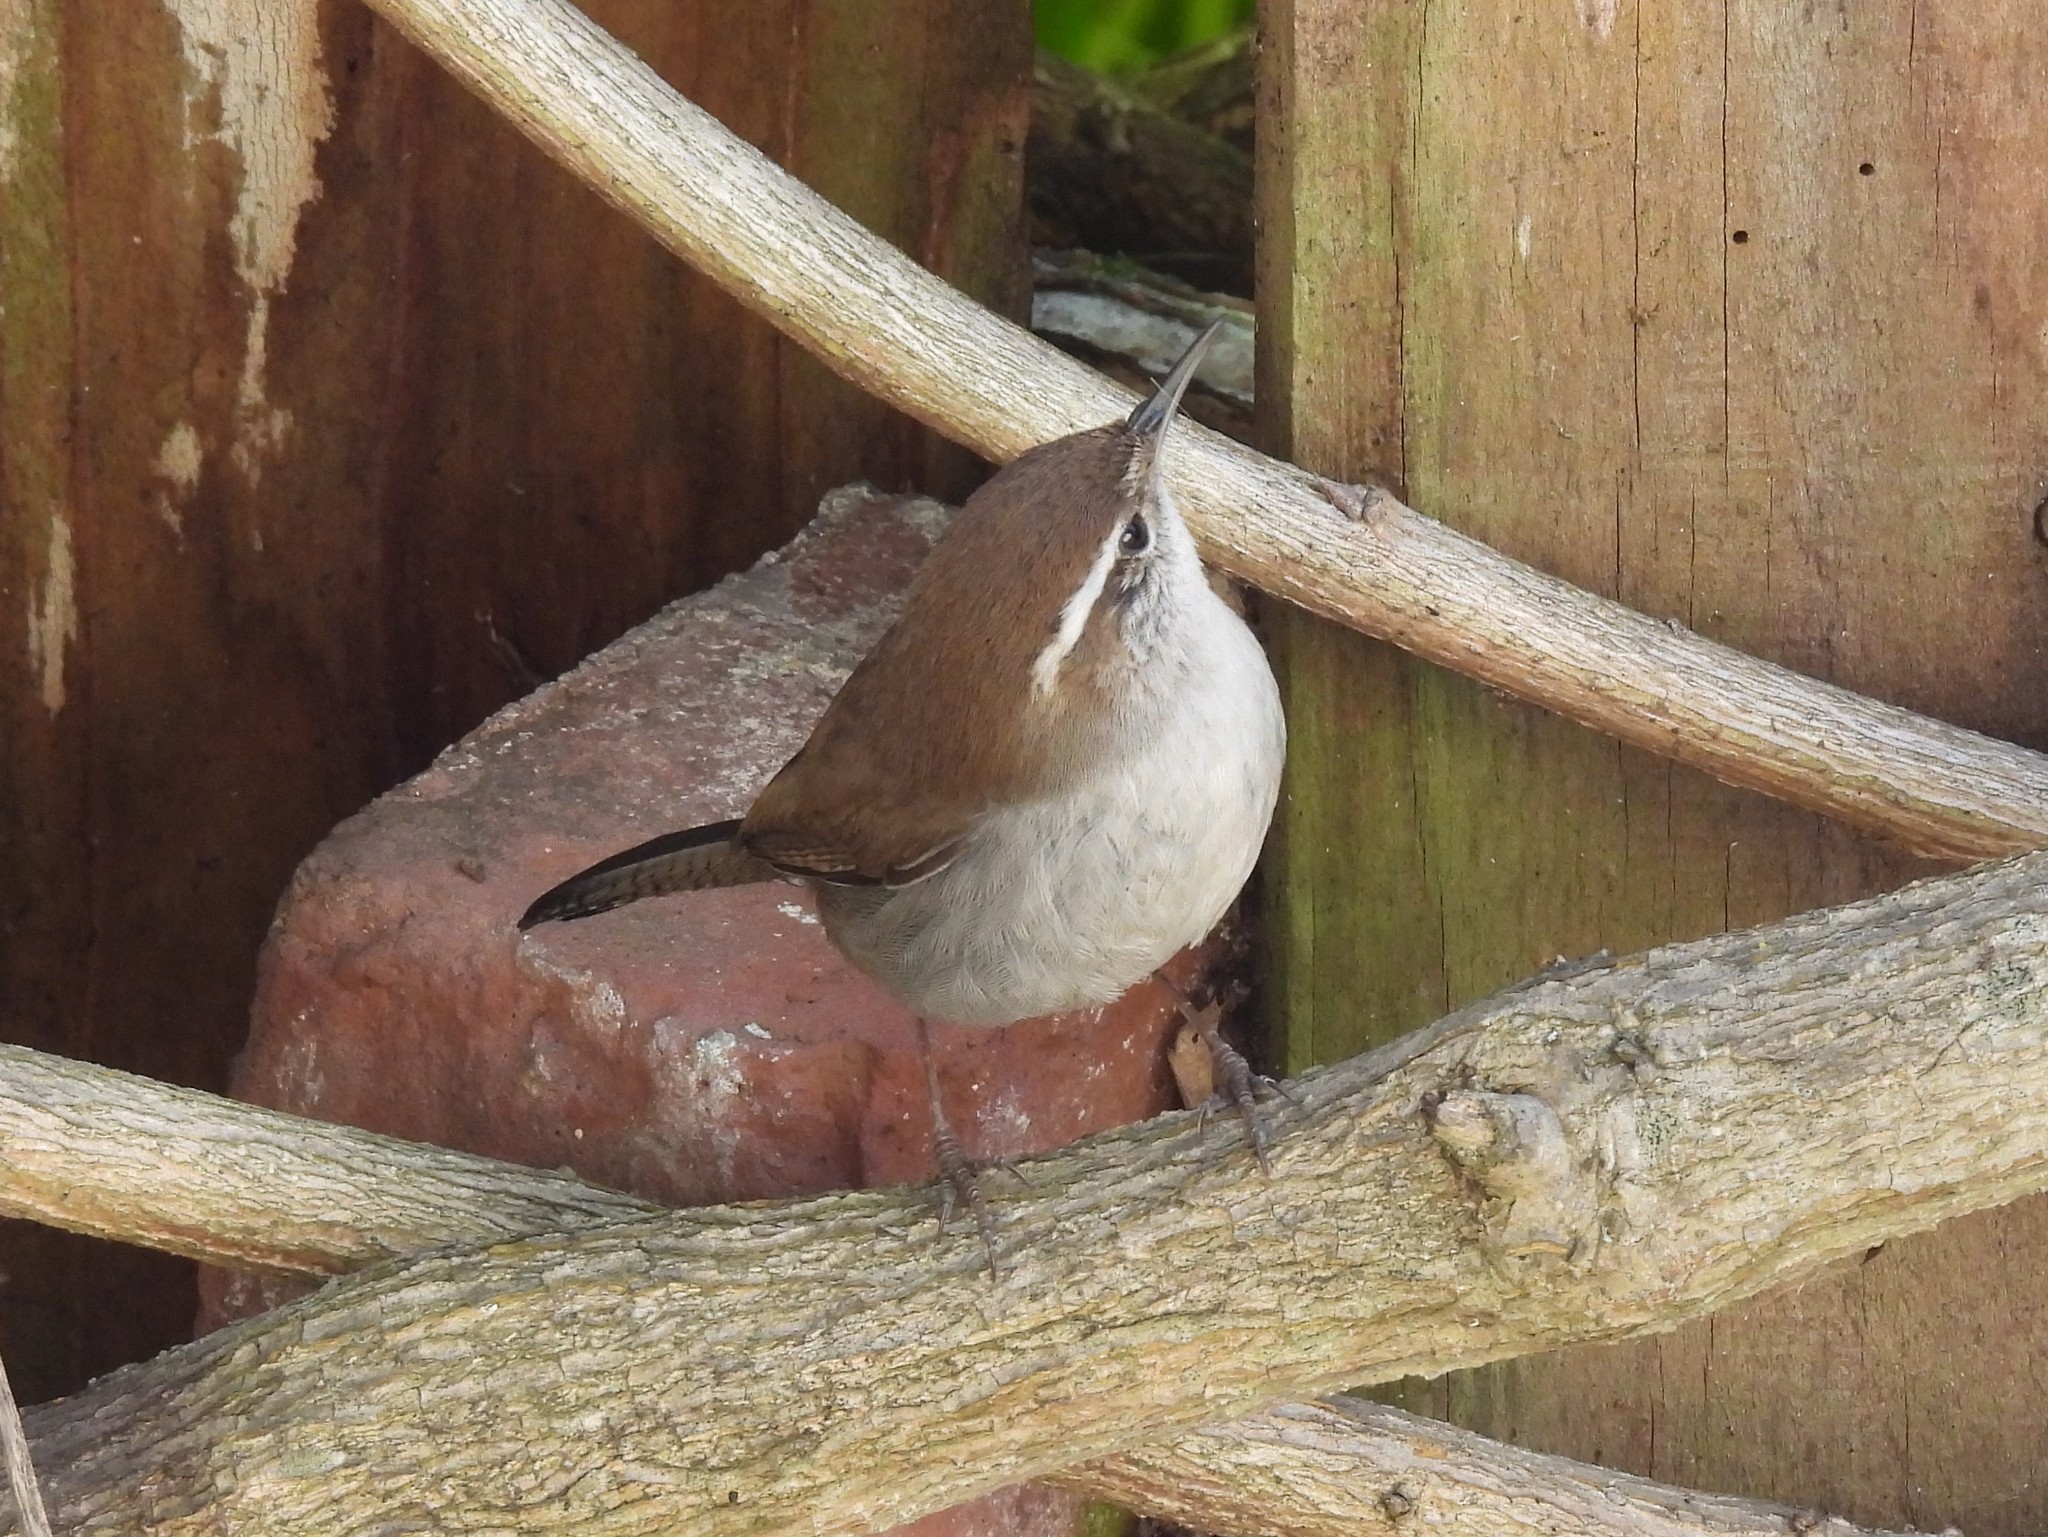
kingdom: Animalia
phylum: Chordata
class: Aves
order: Passeriformes
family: Troglodytidae
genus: Thryomanes
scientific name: Thryomanes bewickii
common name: Bewick's wren
